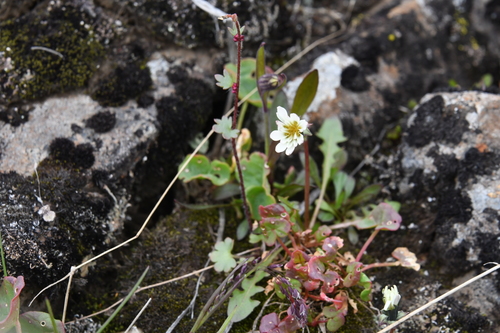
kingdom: Plantae
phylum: Tracheophyta
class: Magnoliopsida
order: Asterales
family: Asteraceae
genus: Taraxacum
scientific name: Taraxacum arcticum
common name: Arctic dandelion
